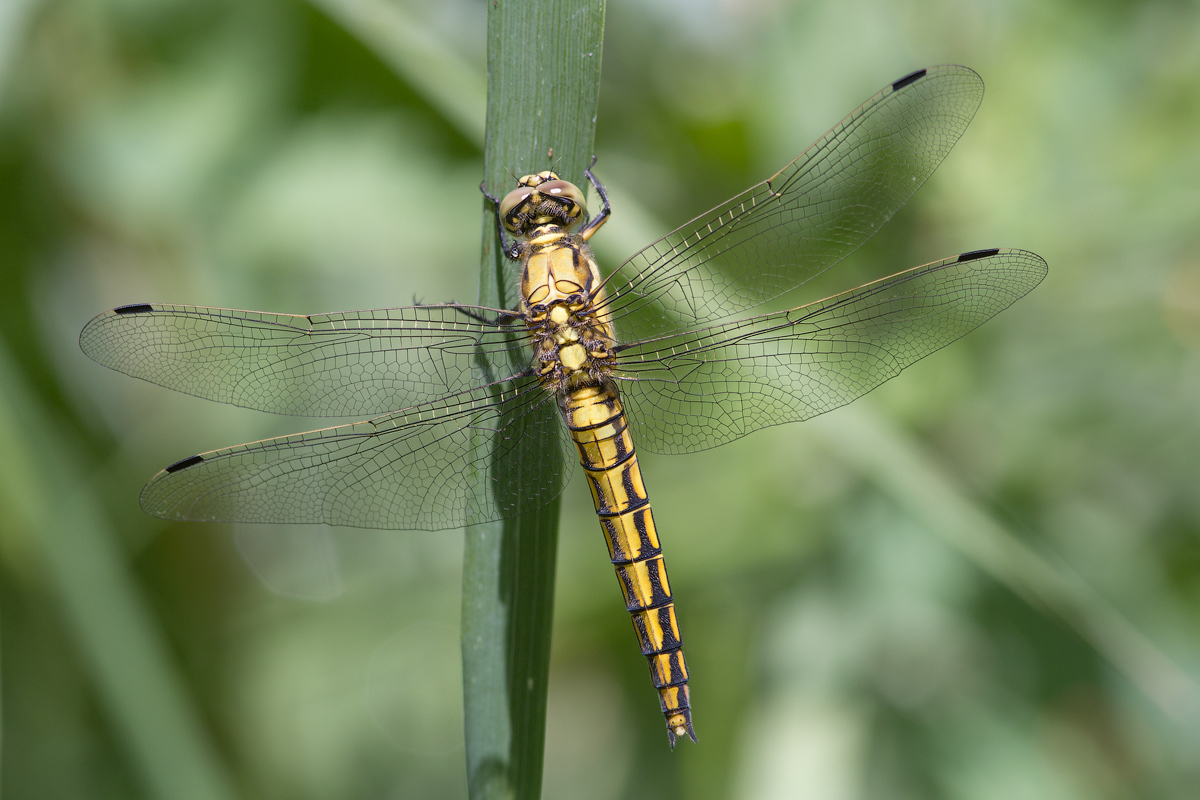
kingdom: Animalia
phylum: Arthropoda
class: Insecta
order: Odonata
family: Libellulidae
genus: Orthetrum
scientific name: Orthetrum cancellatum
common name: Black-tailed skimmer
